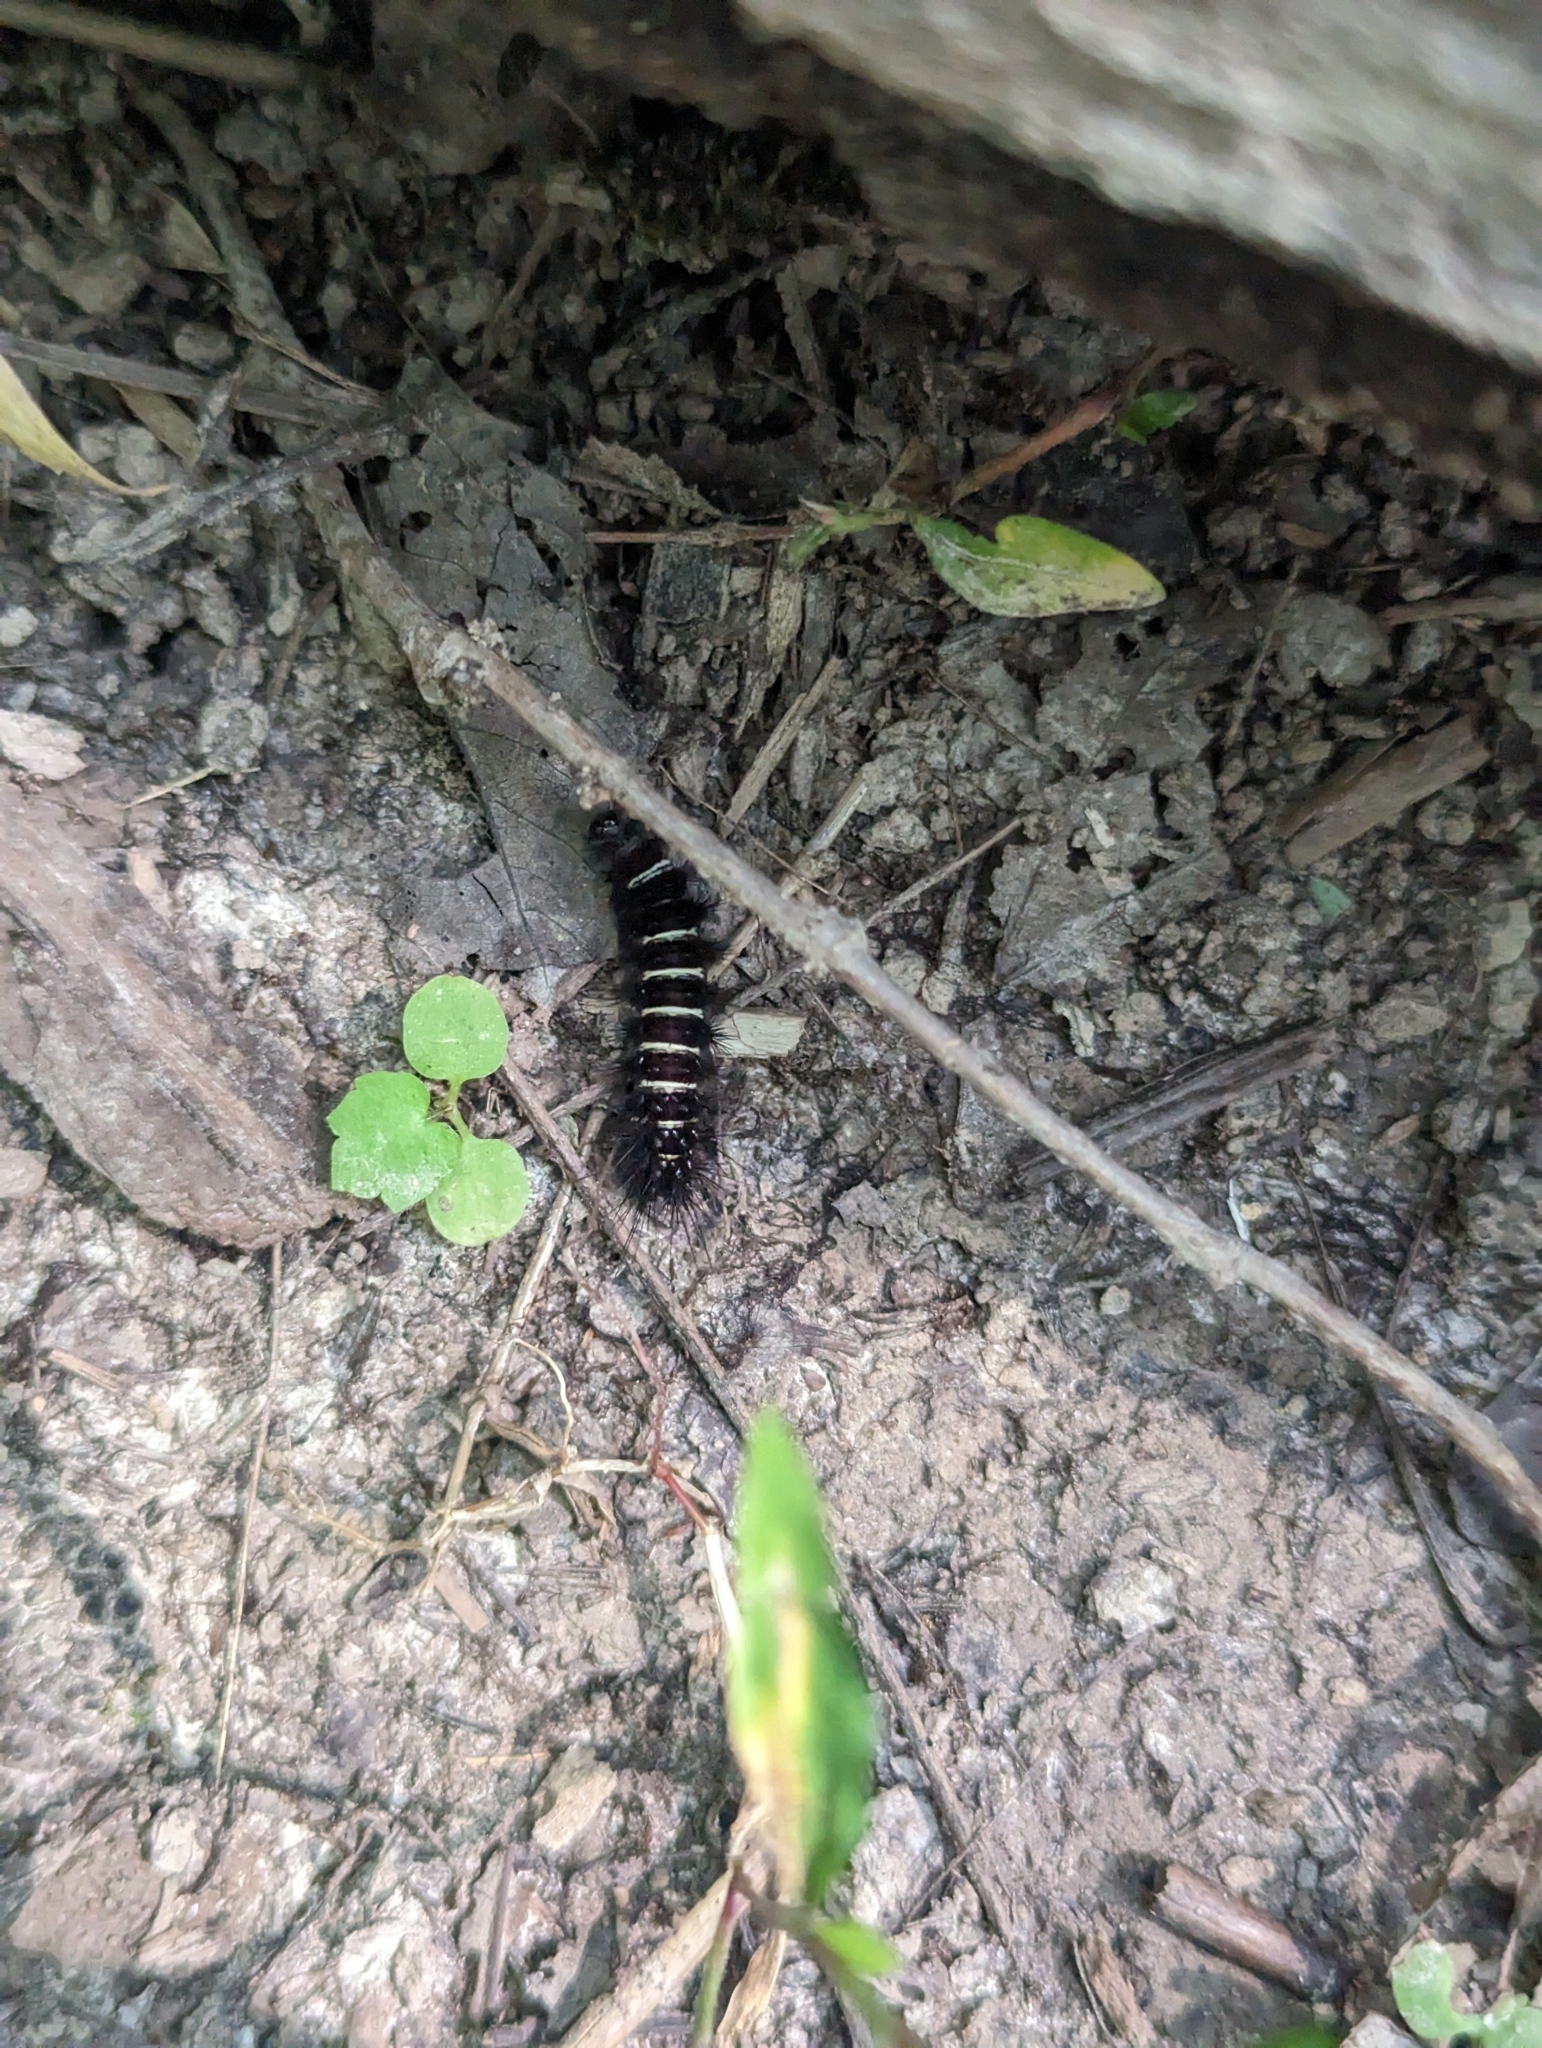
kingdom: Animalia
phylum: Arthropoda
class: Insecta
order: Lepidoptera
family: Erebidae
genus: Spilosoma
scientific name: Spilosoma congrua
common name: Agreeable tiger moth
